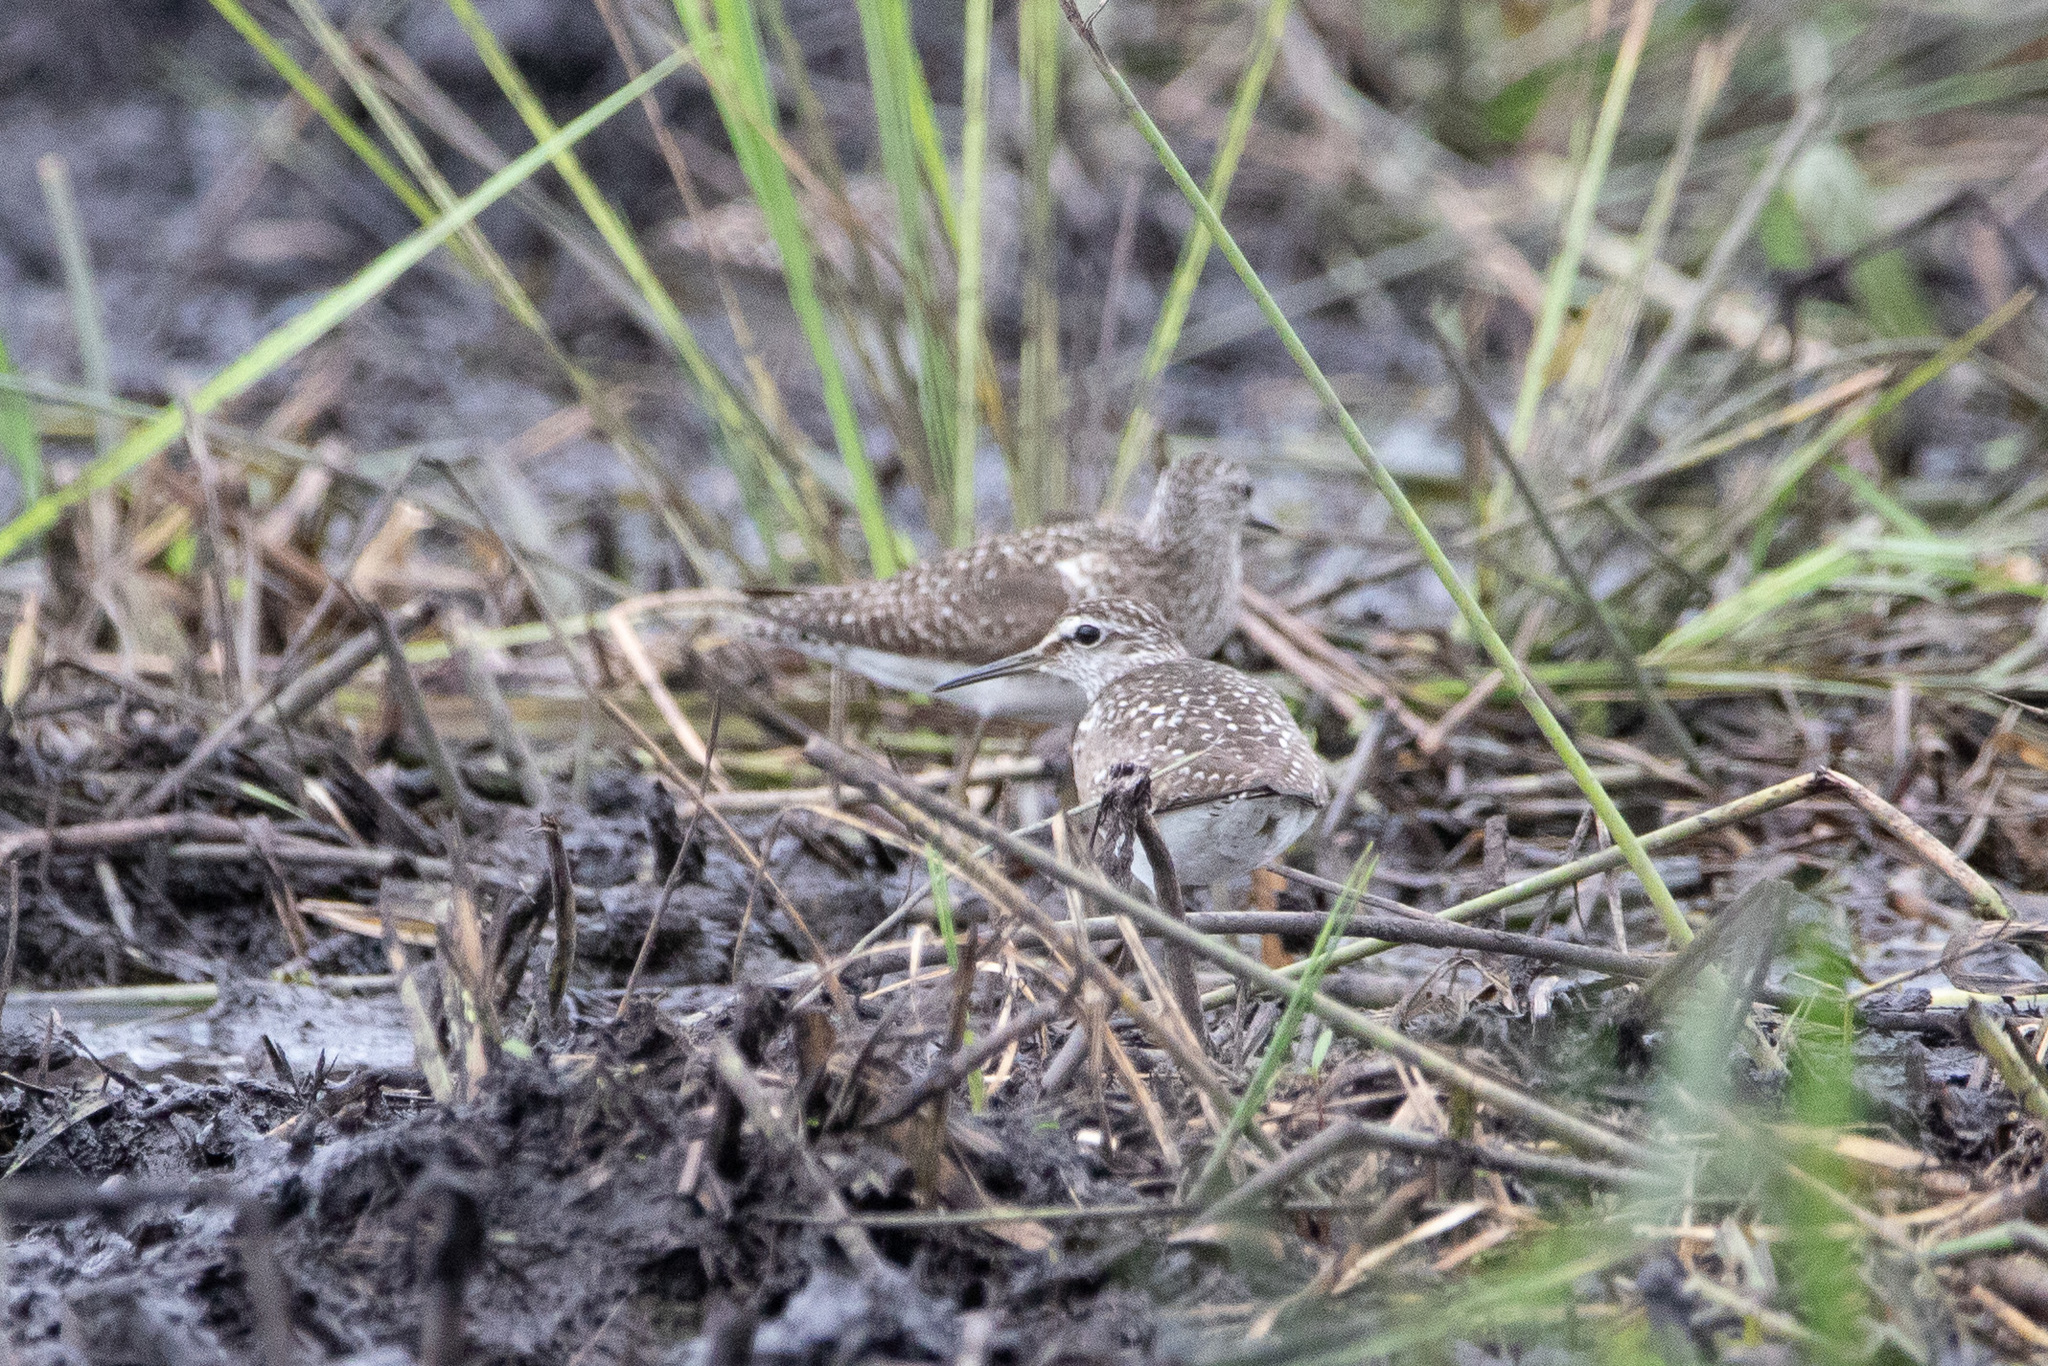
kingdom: Animalia
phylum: Chordata
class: Aves
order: Charadriiformes
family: Scolopacidae
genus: Tringa
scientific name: Tringa glareola
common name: Wood sandpiper
